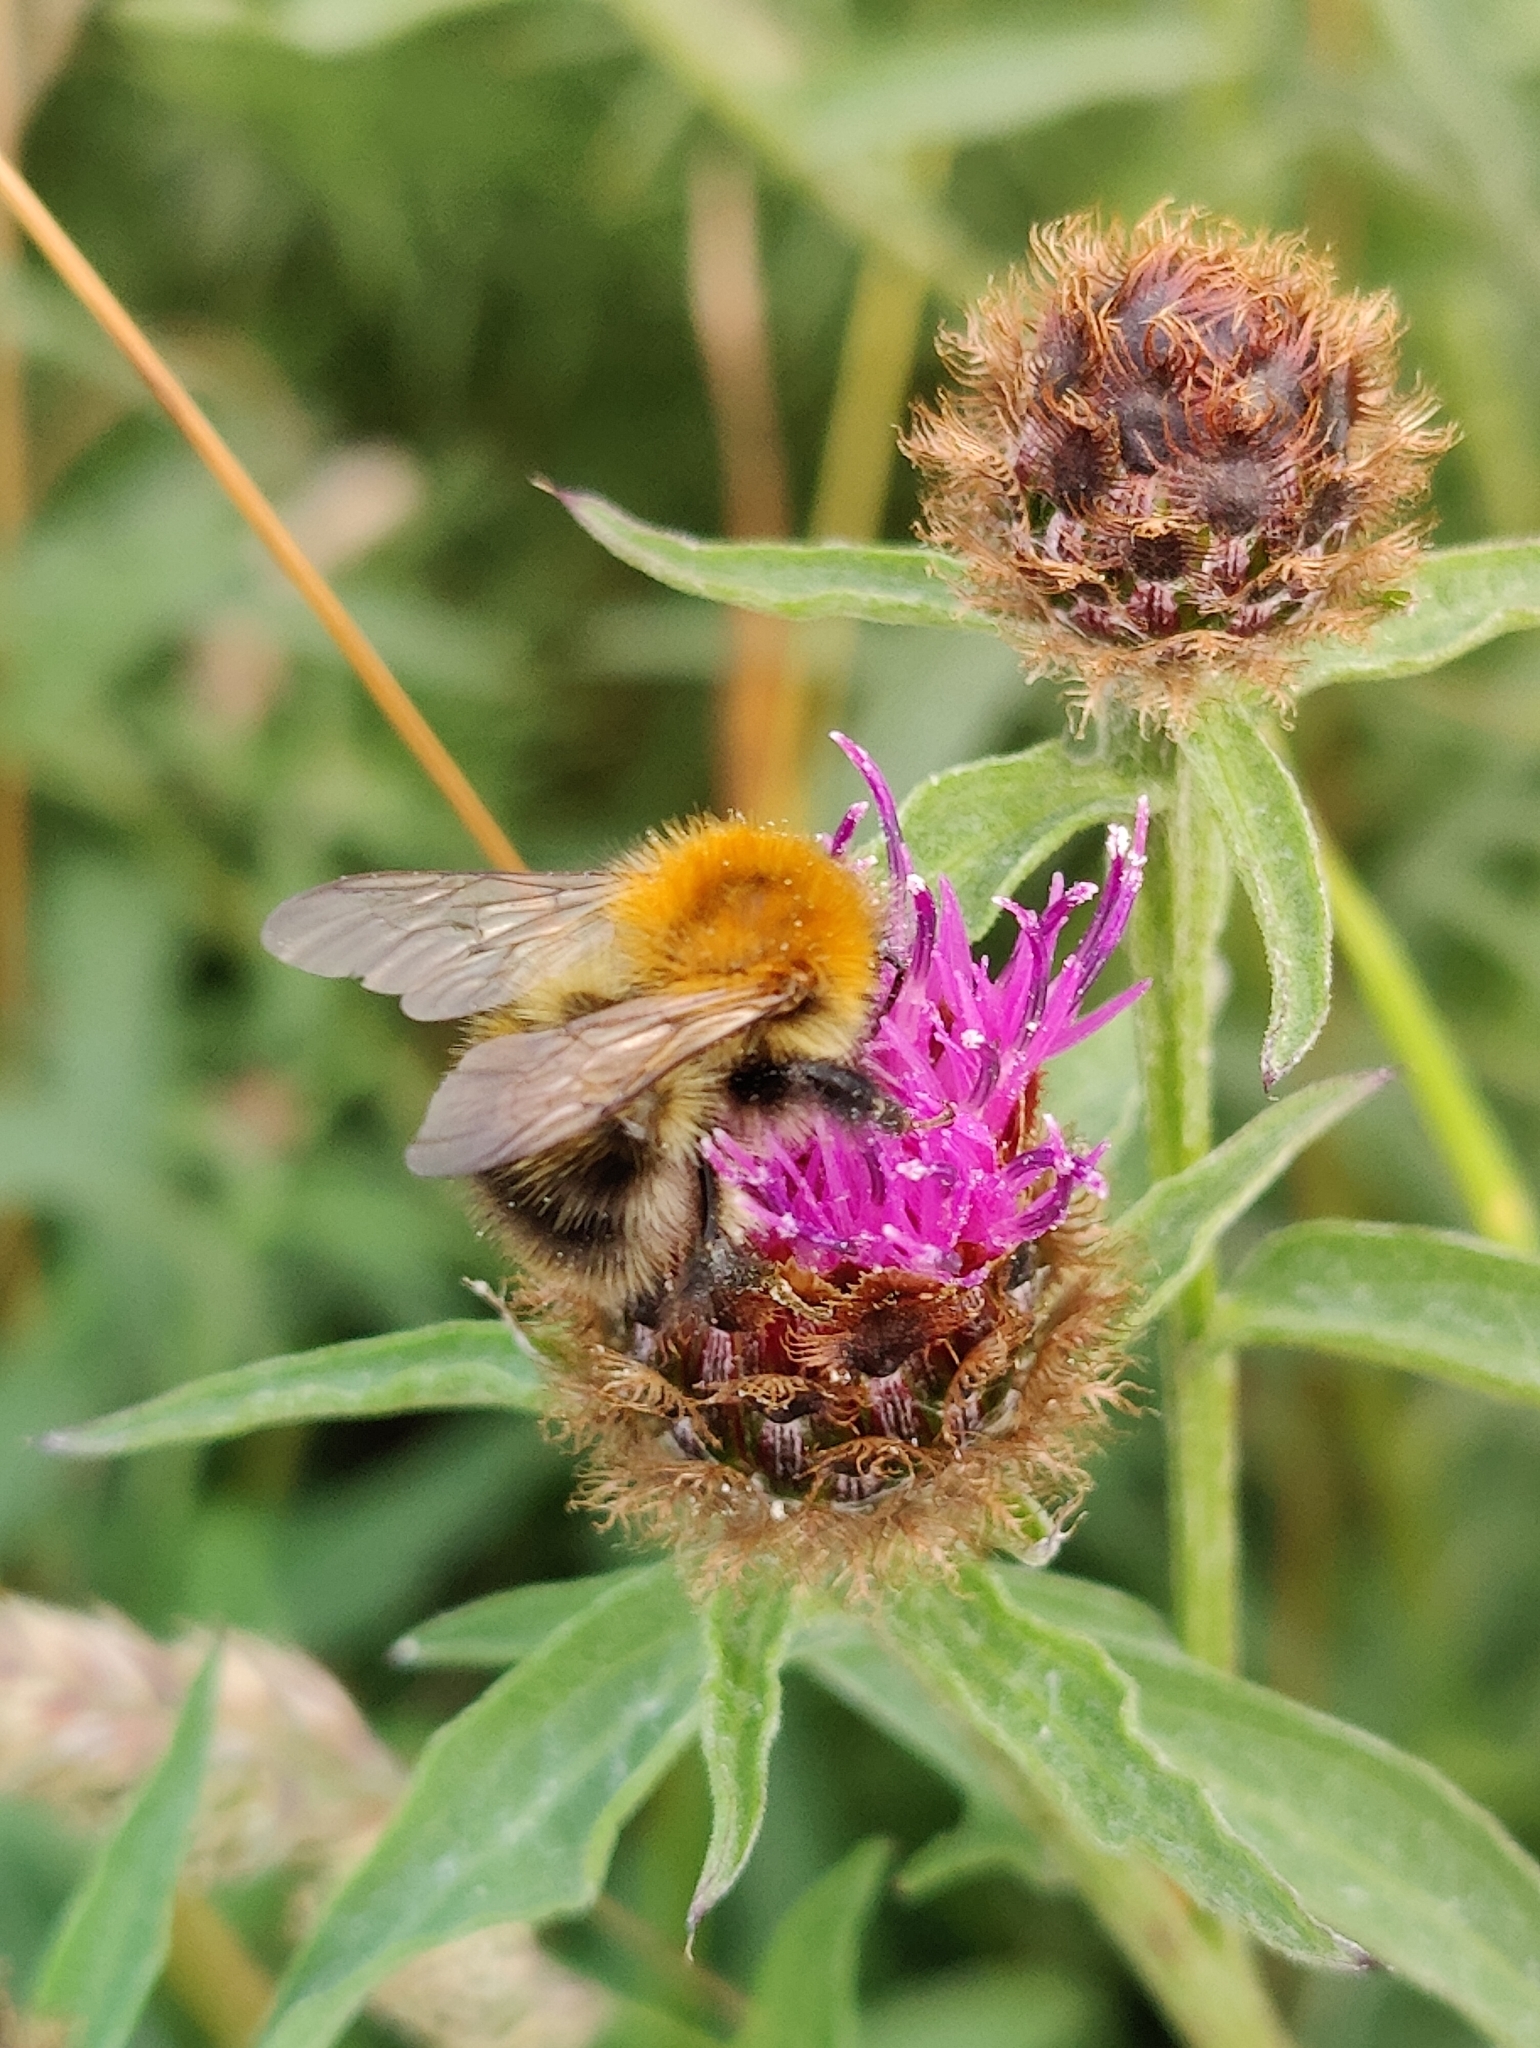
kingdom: Animalia
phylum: Arthropoda
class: Insecta
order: Hymenoptera
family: Apidae
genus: Bombus
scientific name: Bombus pascuorum
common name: Common carder bee
